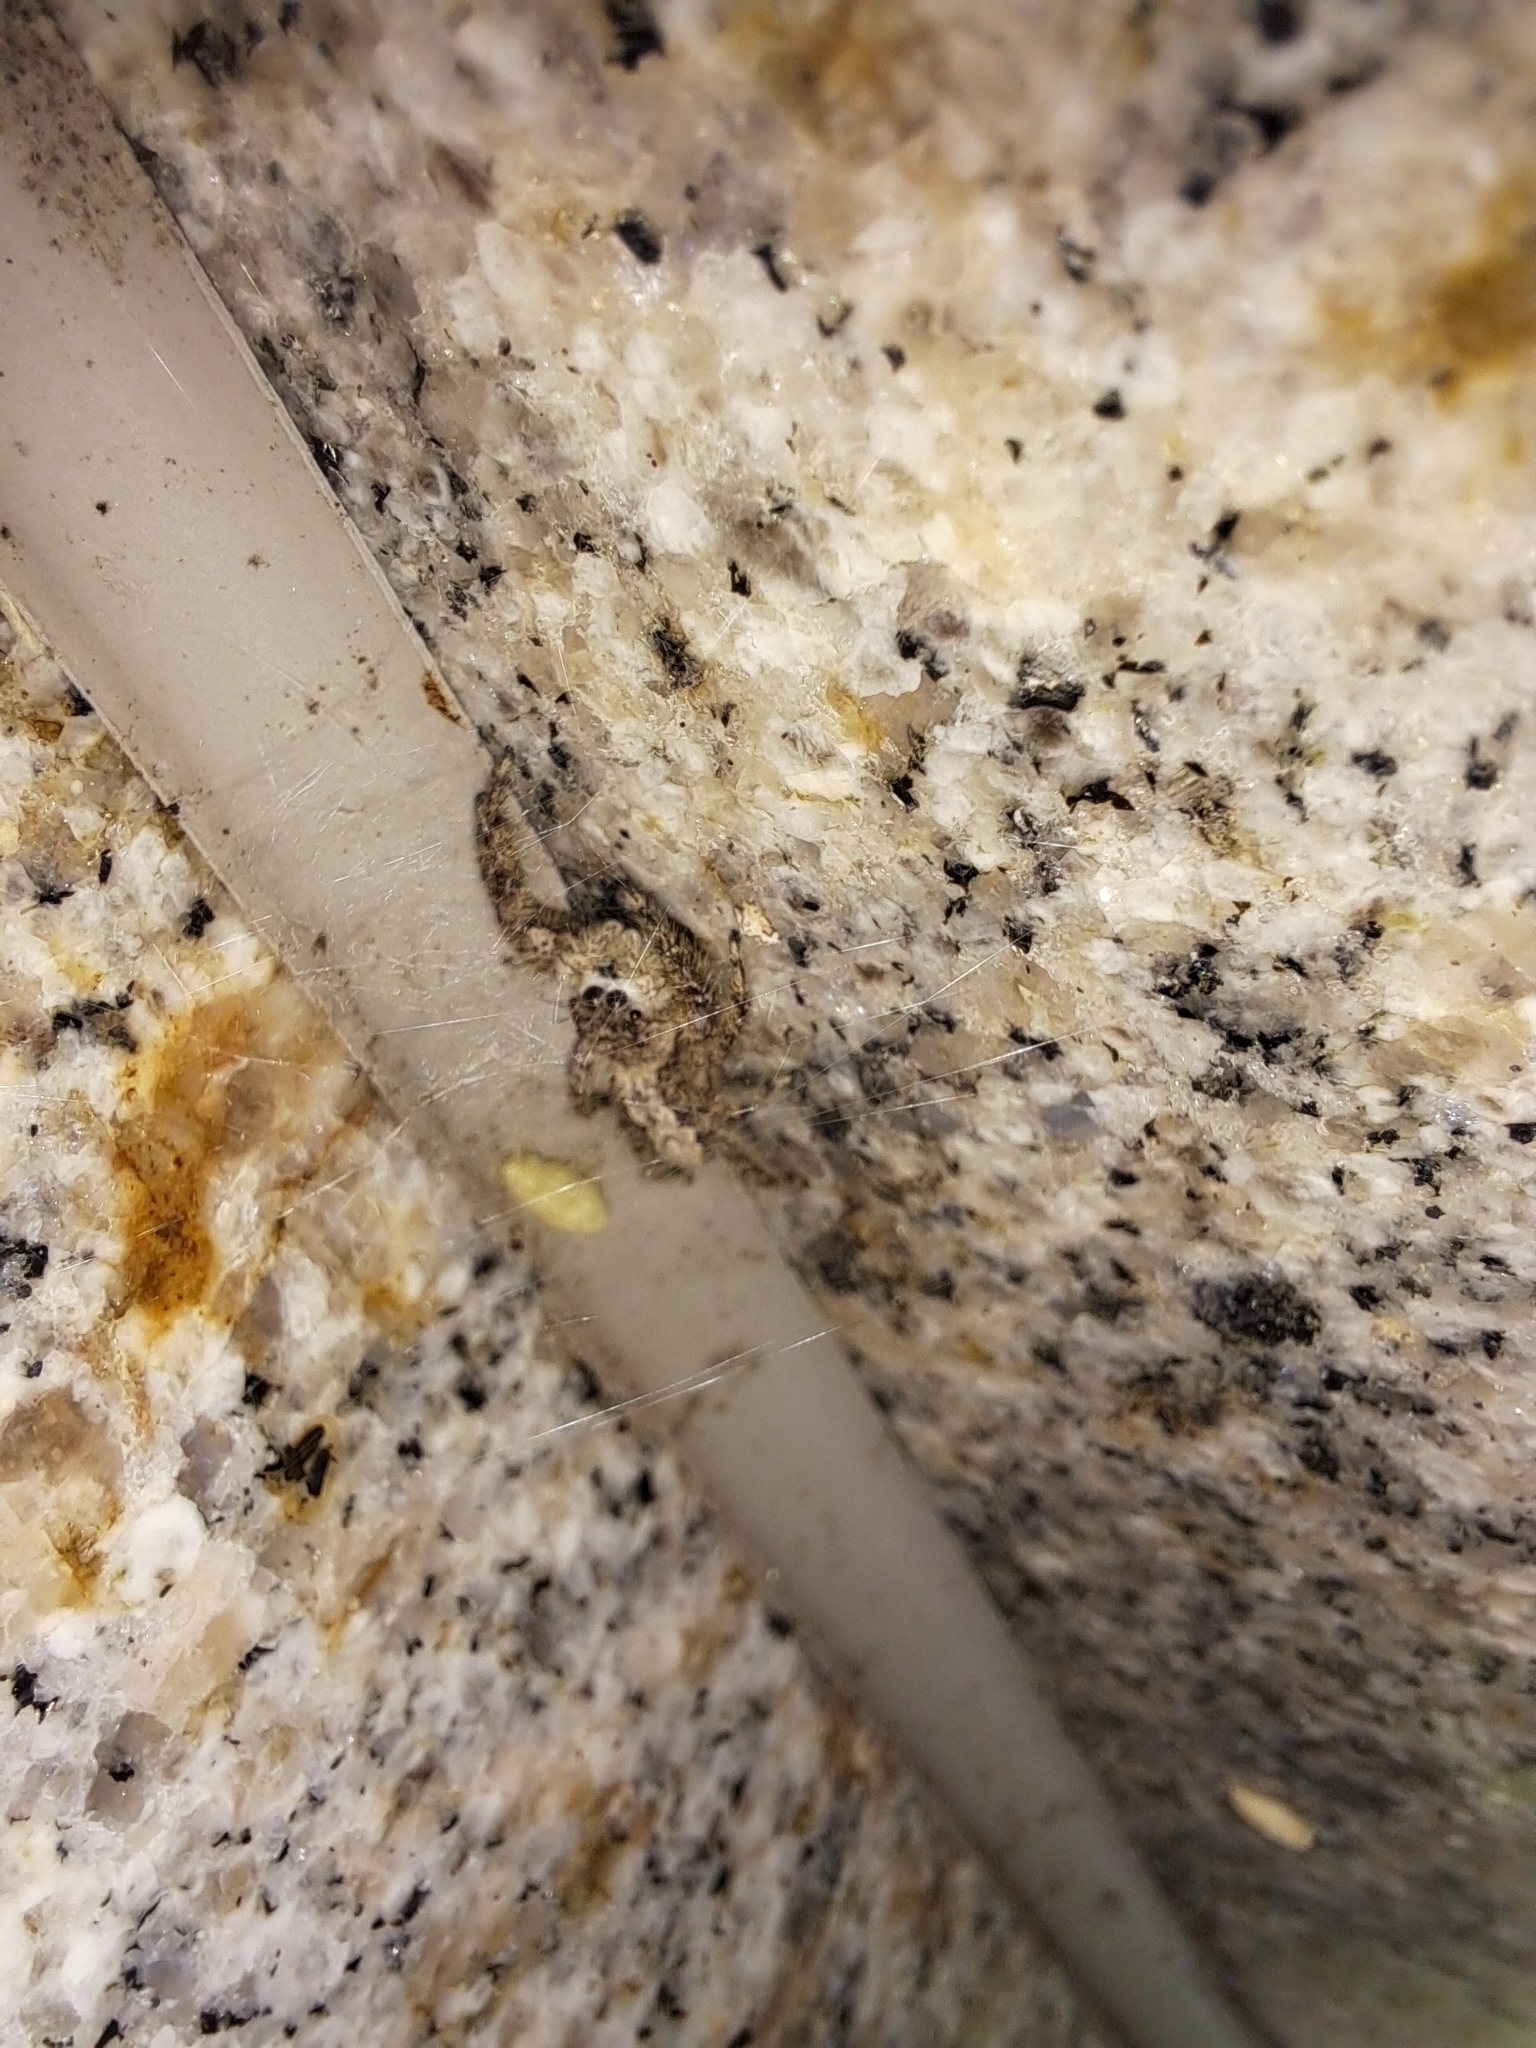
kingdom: Animalia
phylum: Arthropoda
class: Arachnida
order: Araneae
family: Salticidae
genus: Platycryptus
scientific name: Platycryptus undatus
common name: Tan jumping spider
